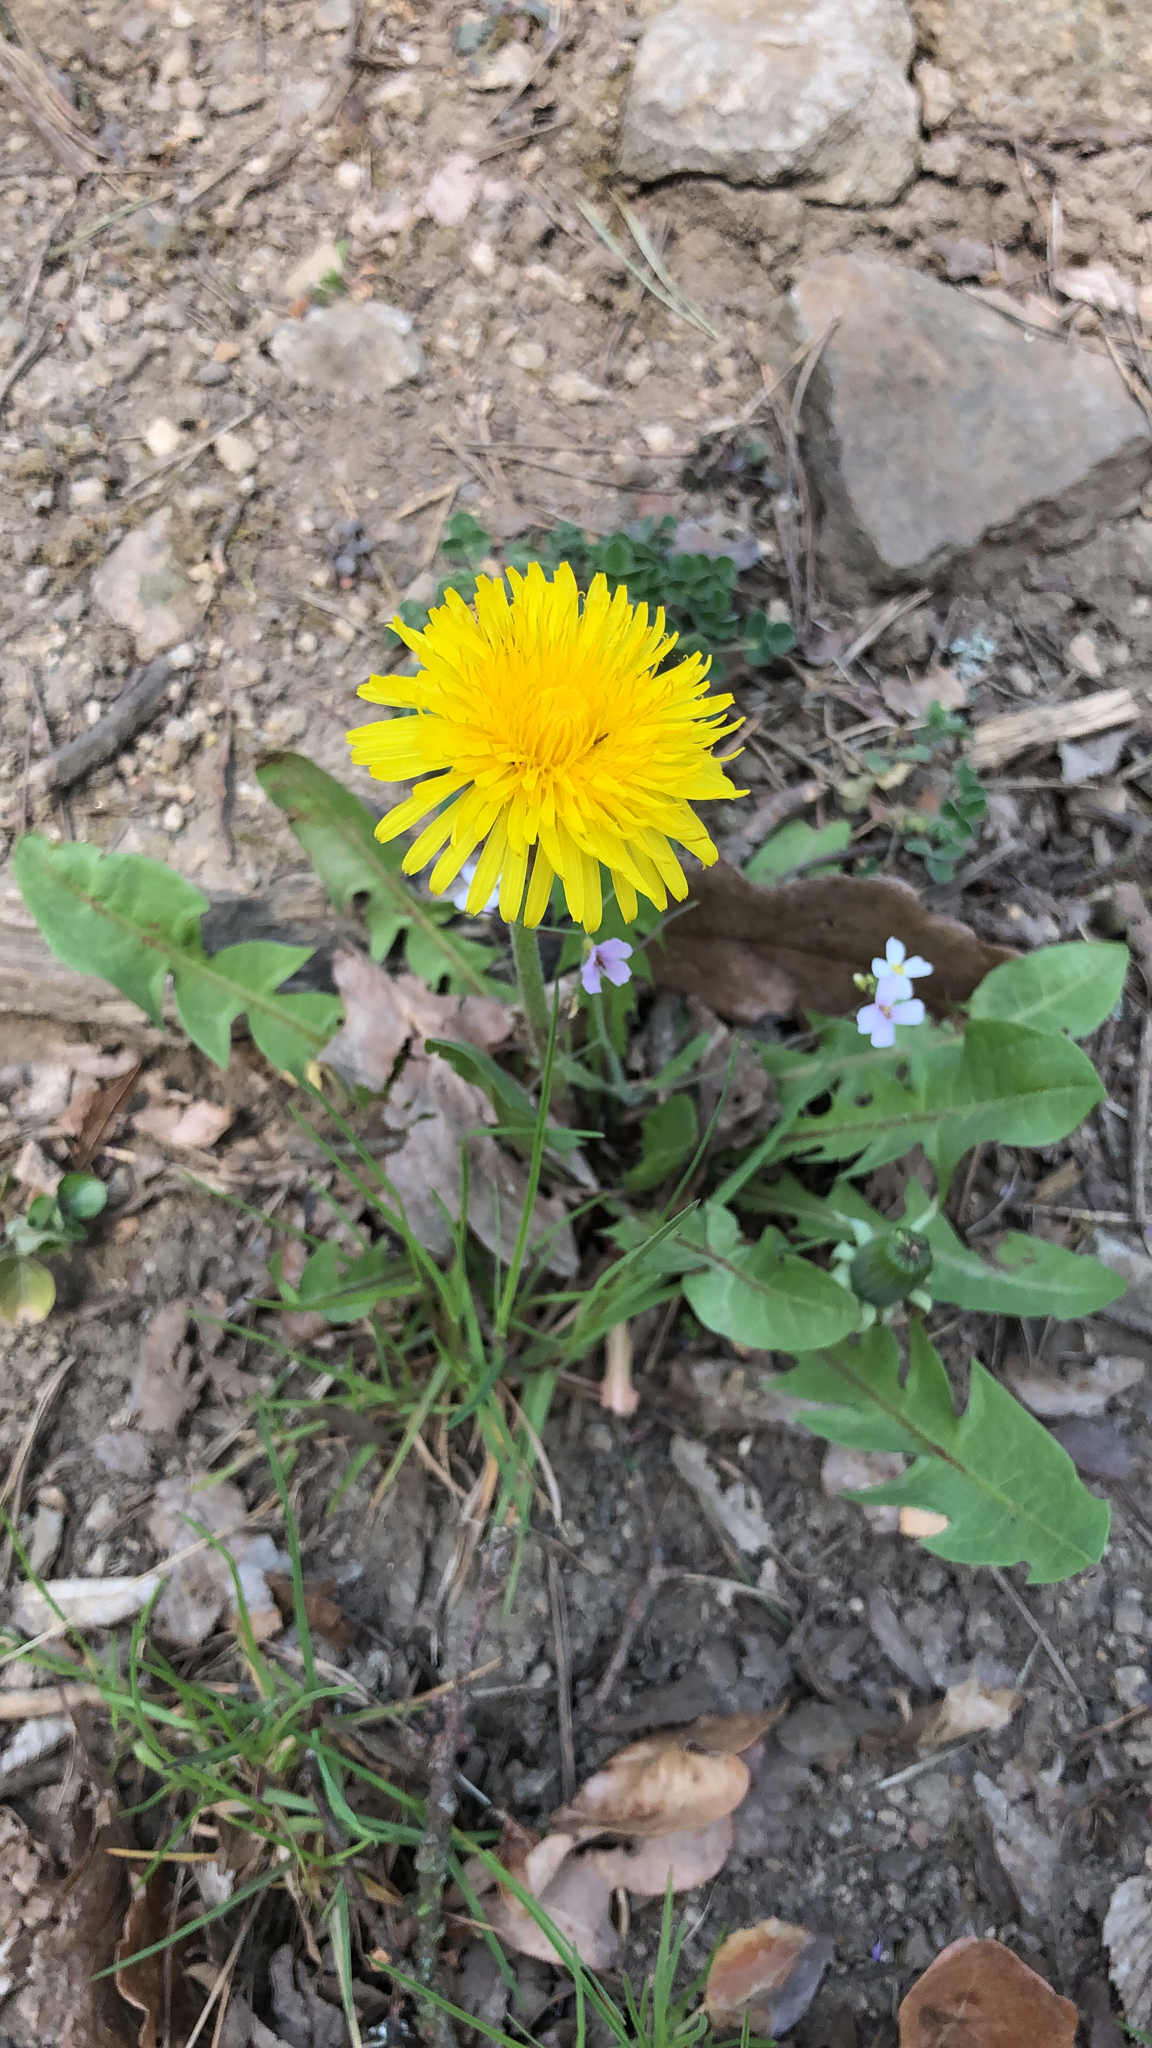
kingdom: Plantae
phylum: Tracheophyta
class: Magnoliopsida
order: Asterales
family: Asteraceae
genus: Taraxacum
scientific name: Taraxacum officinale
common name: Common dandelion
